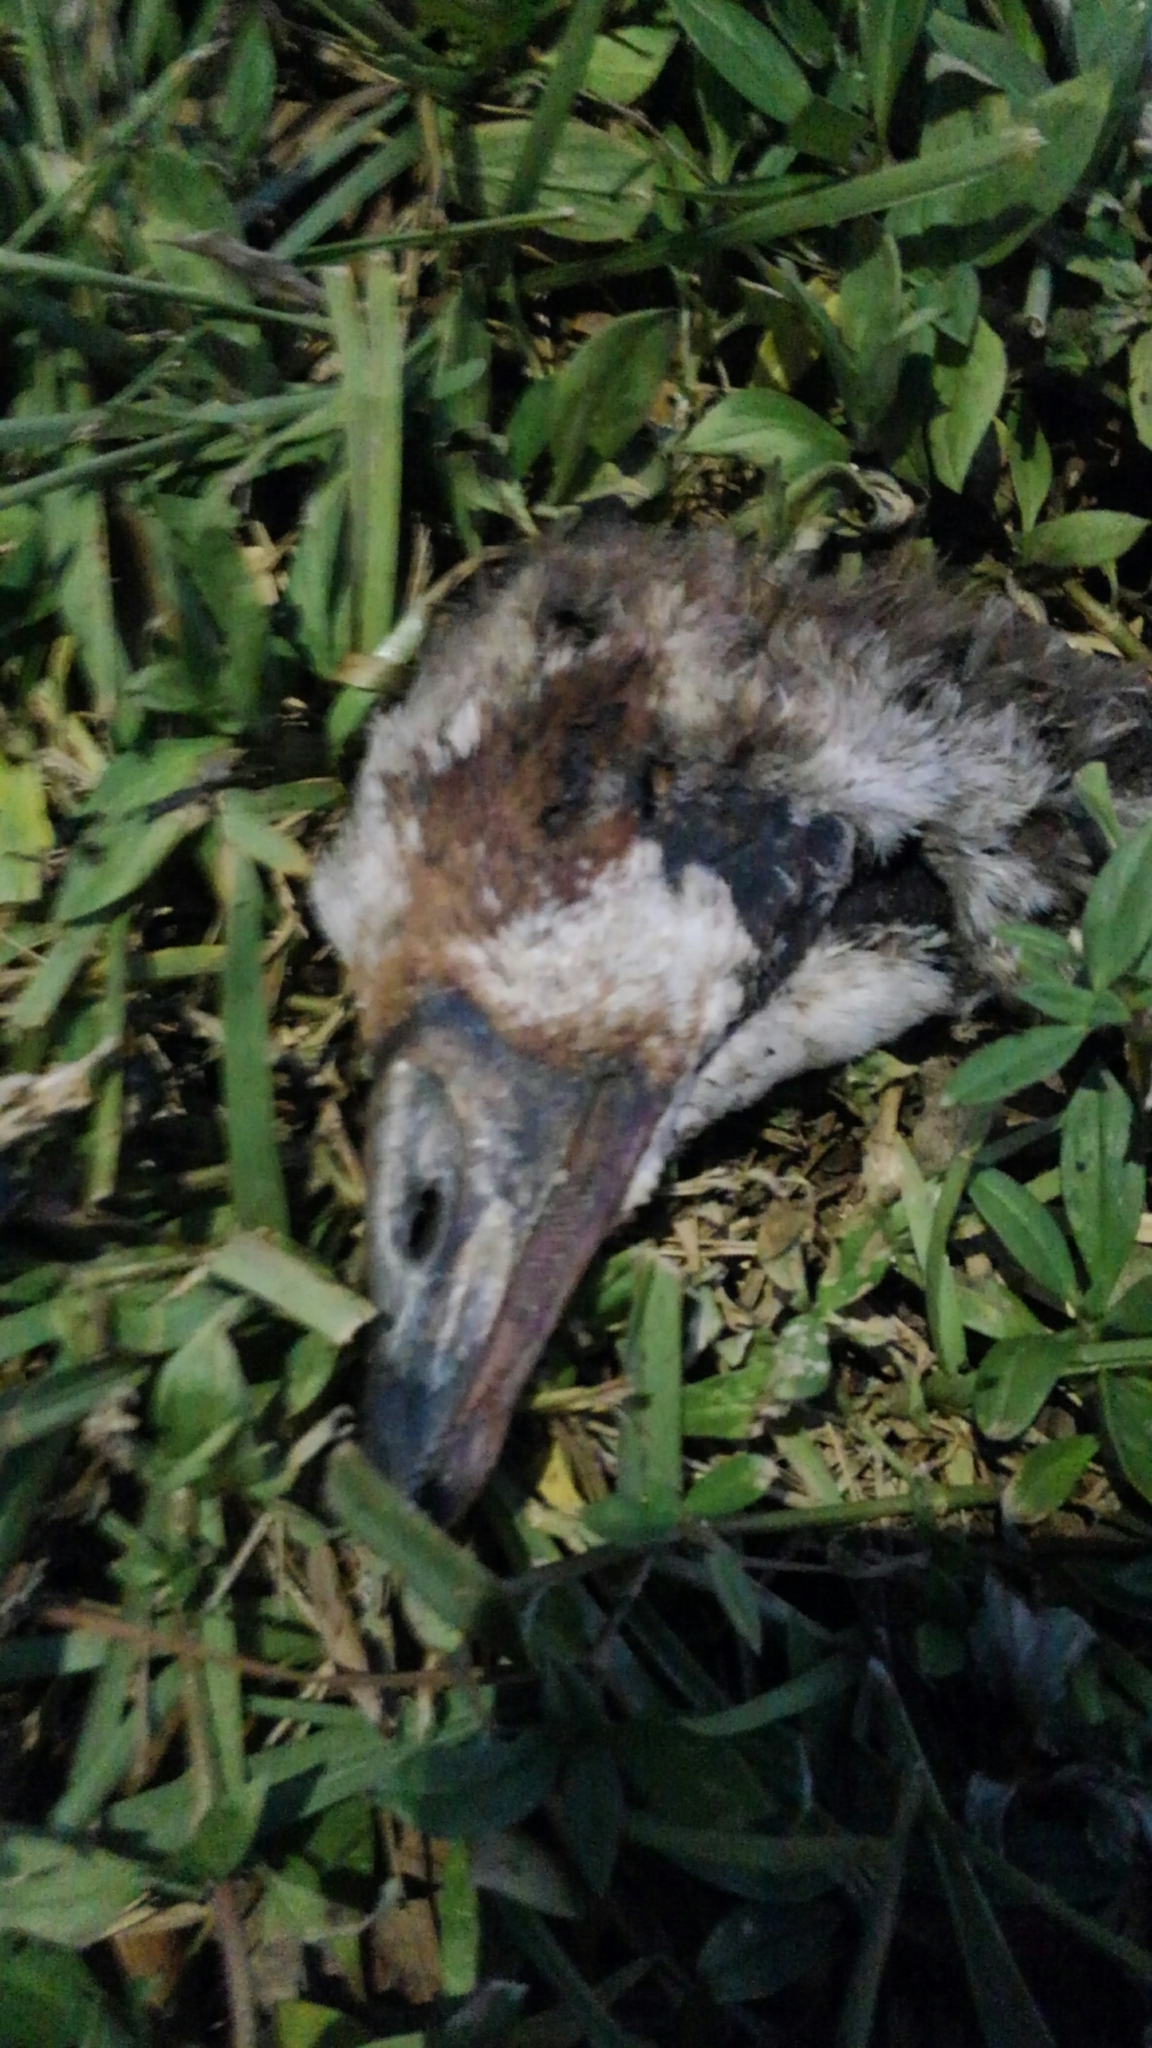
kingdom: Animalia
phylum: Chordata
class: Aves
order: Anseriformes
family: Anatidae
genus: Alopochen
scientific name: Alopochen aegyptiaca
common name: Egyptian goose
